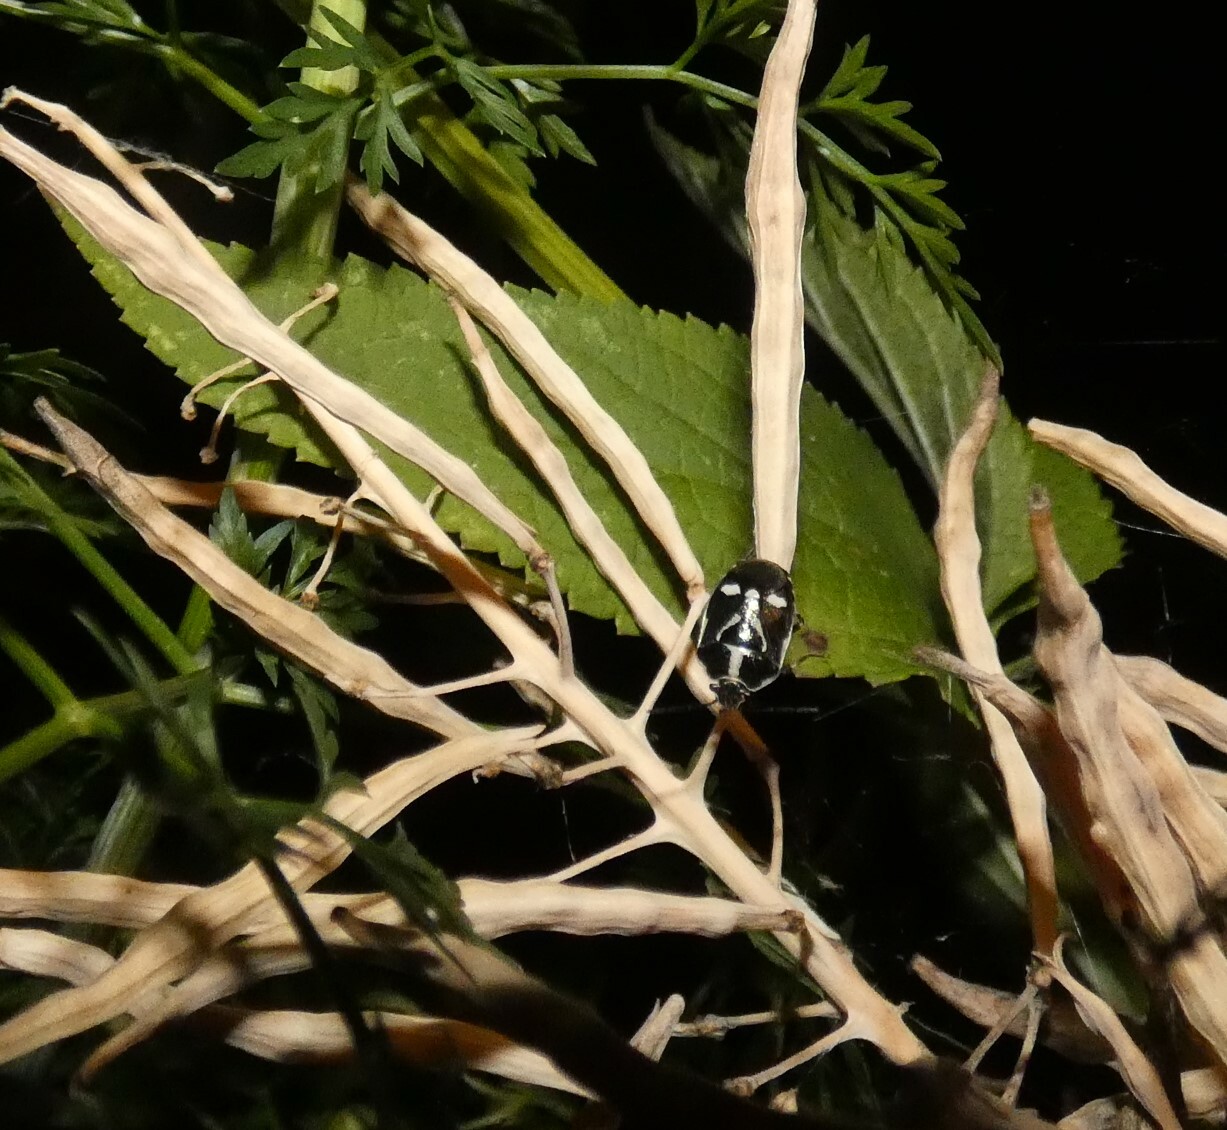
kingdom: Animalia
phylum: Arthropoda
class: Insecta
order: Hemiptera
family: Pentatomidae
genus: Eurydema
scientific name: Eurydema oleracea
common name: Cabbage bug
